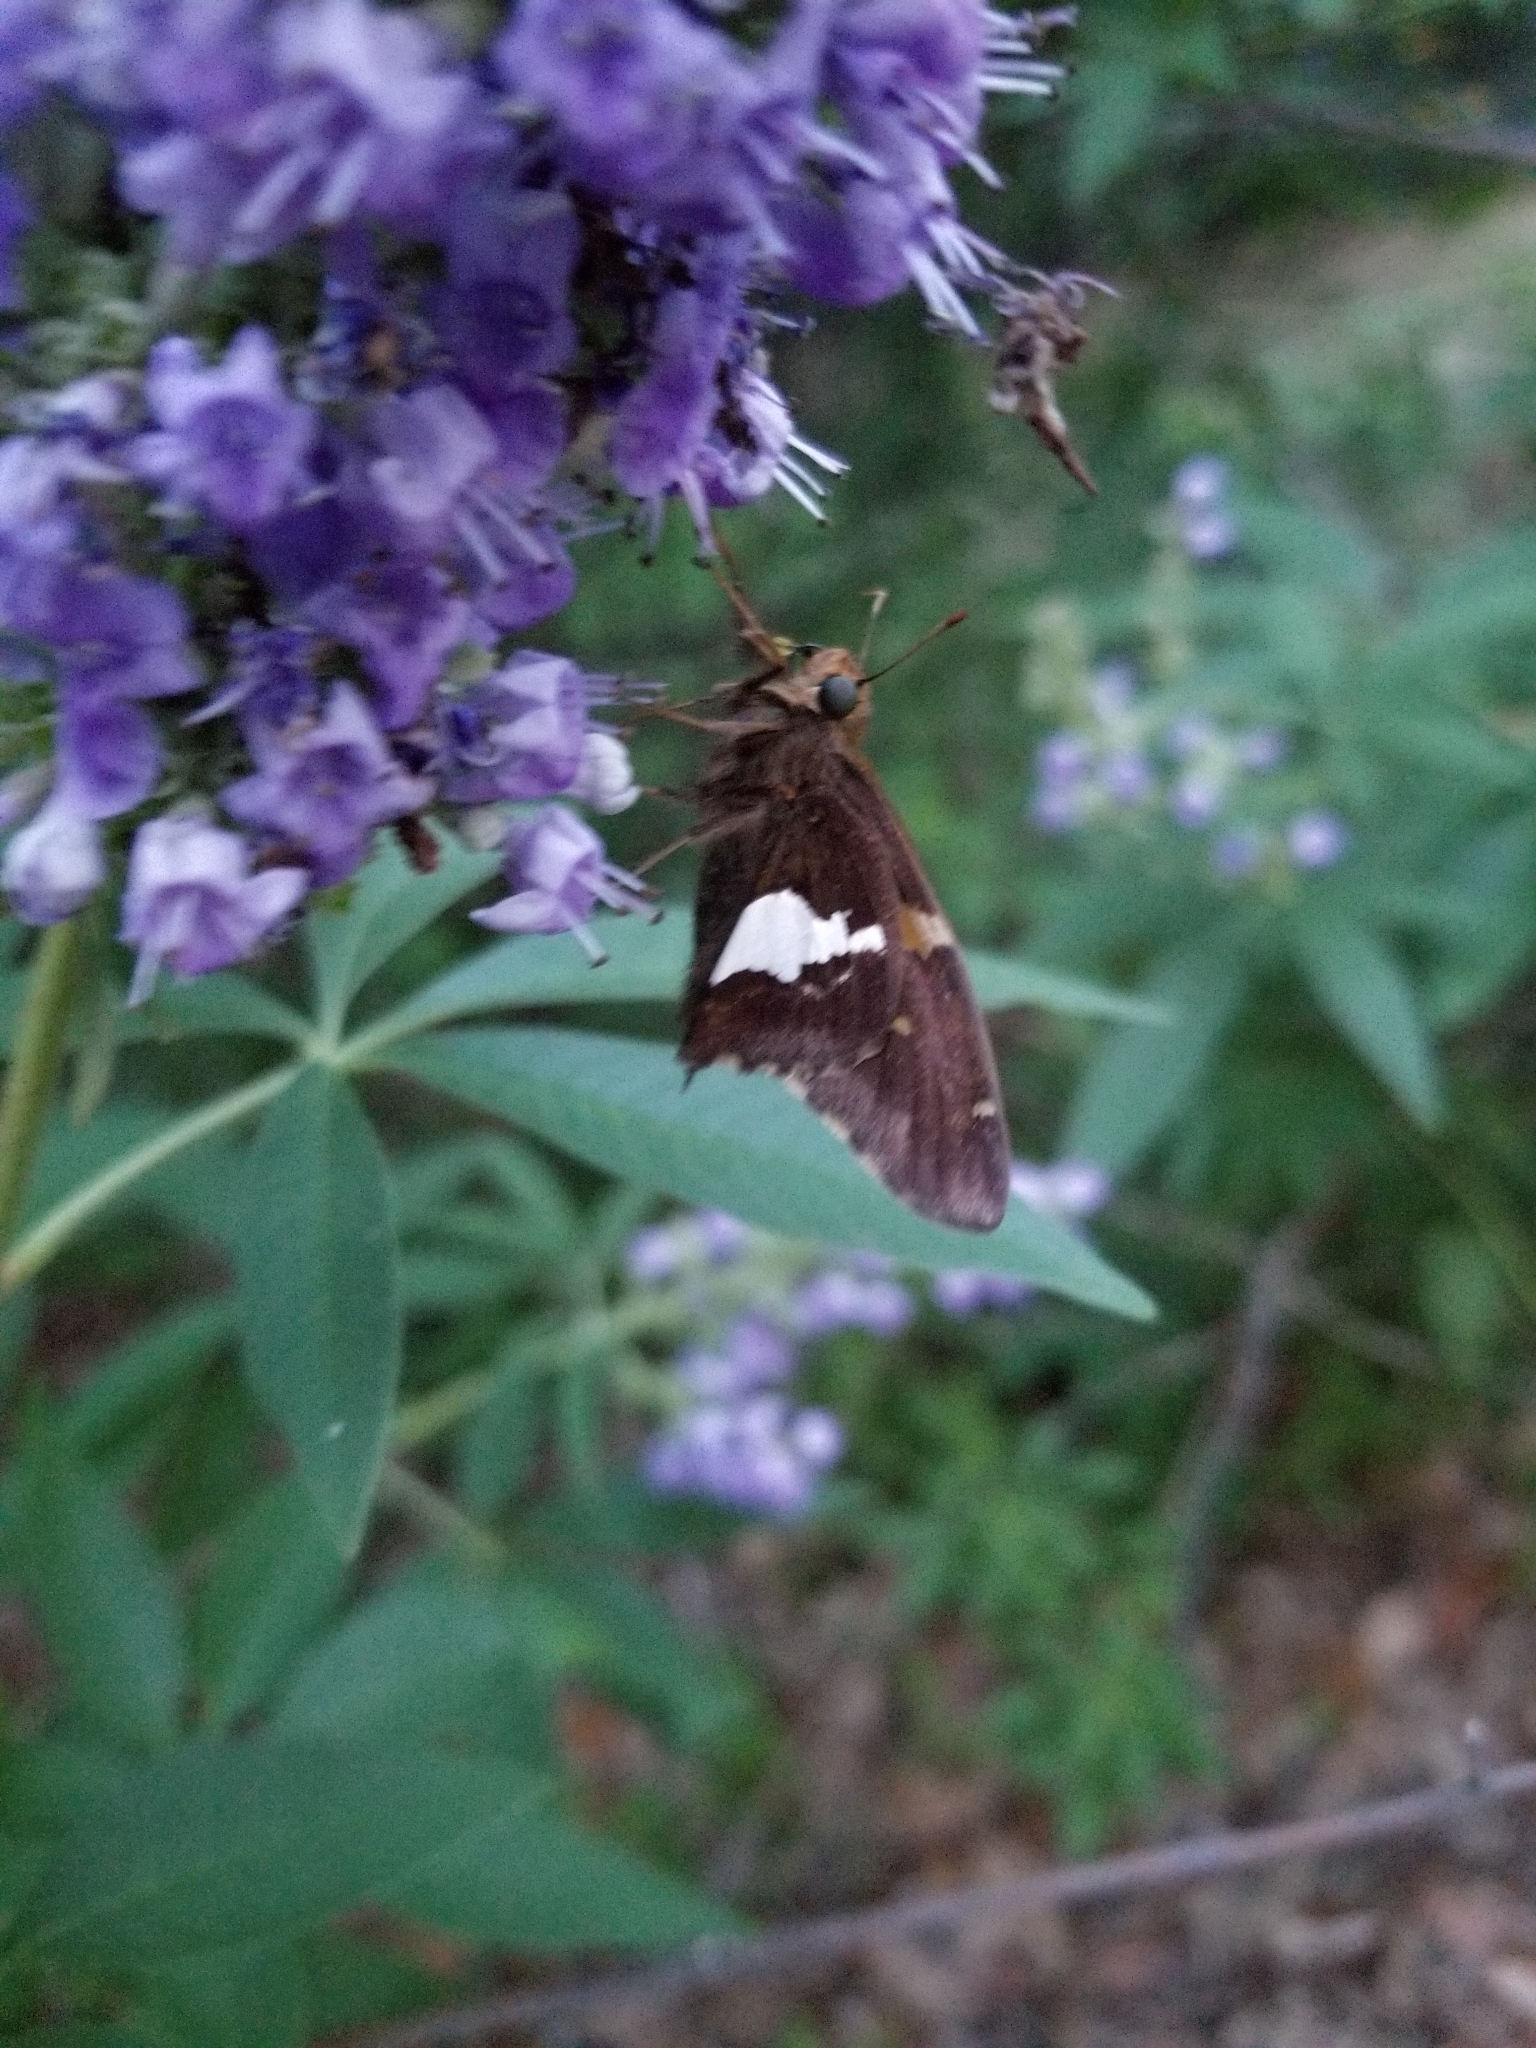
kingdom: Animalia
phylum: Arthropoda
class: Insecta
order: Lepidoptera
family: Hesperiidae
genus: Epargyreus
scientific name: Epargyreus clarus
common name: Silver-spotted skipper
